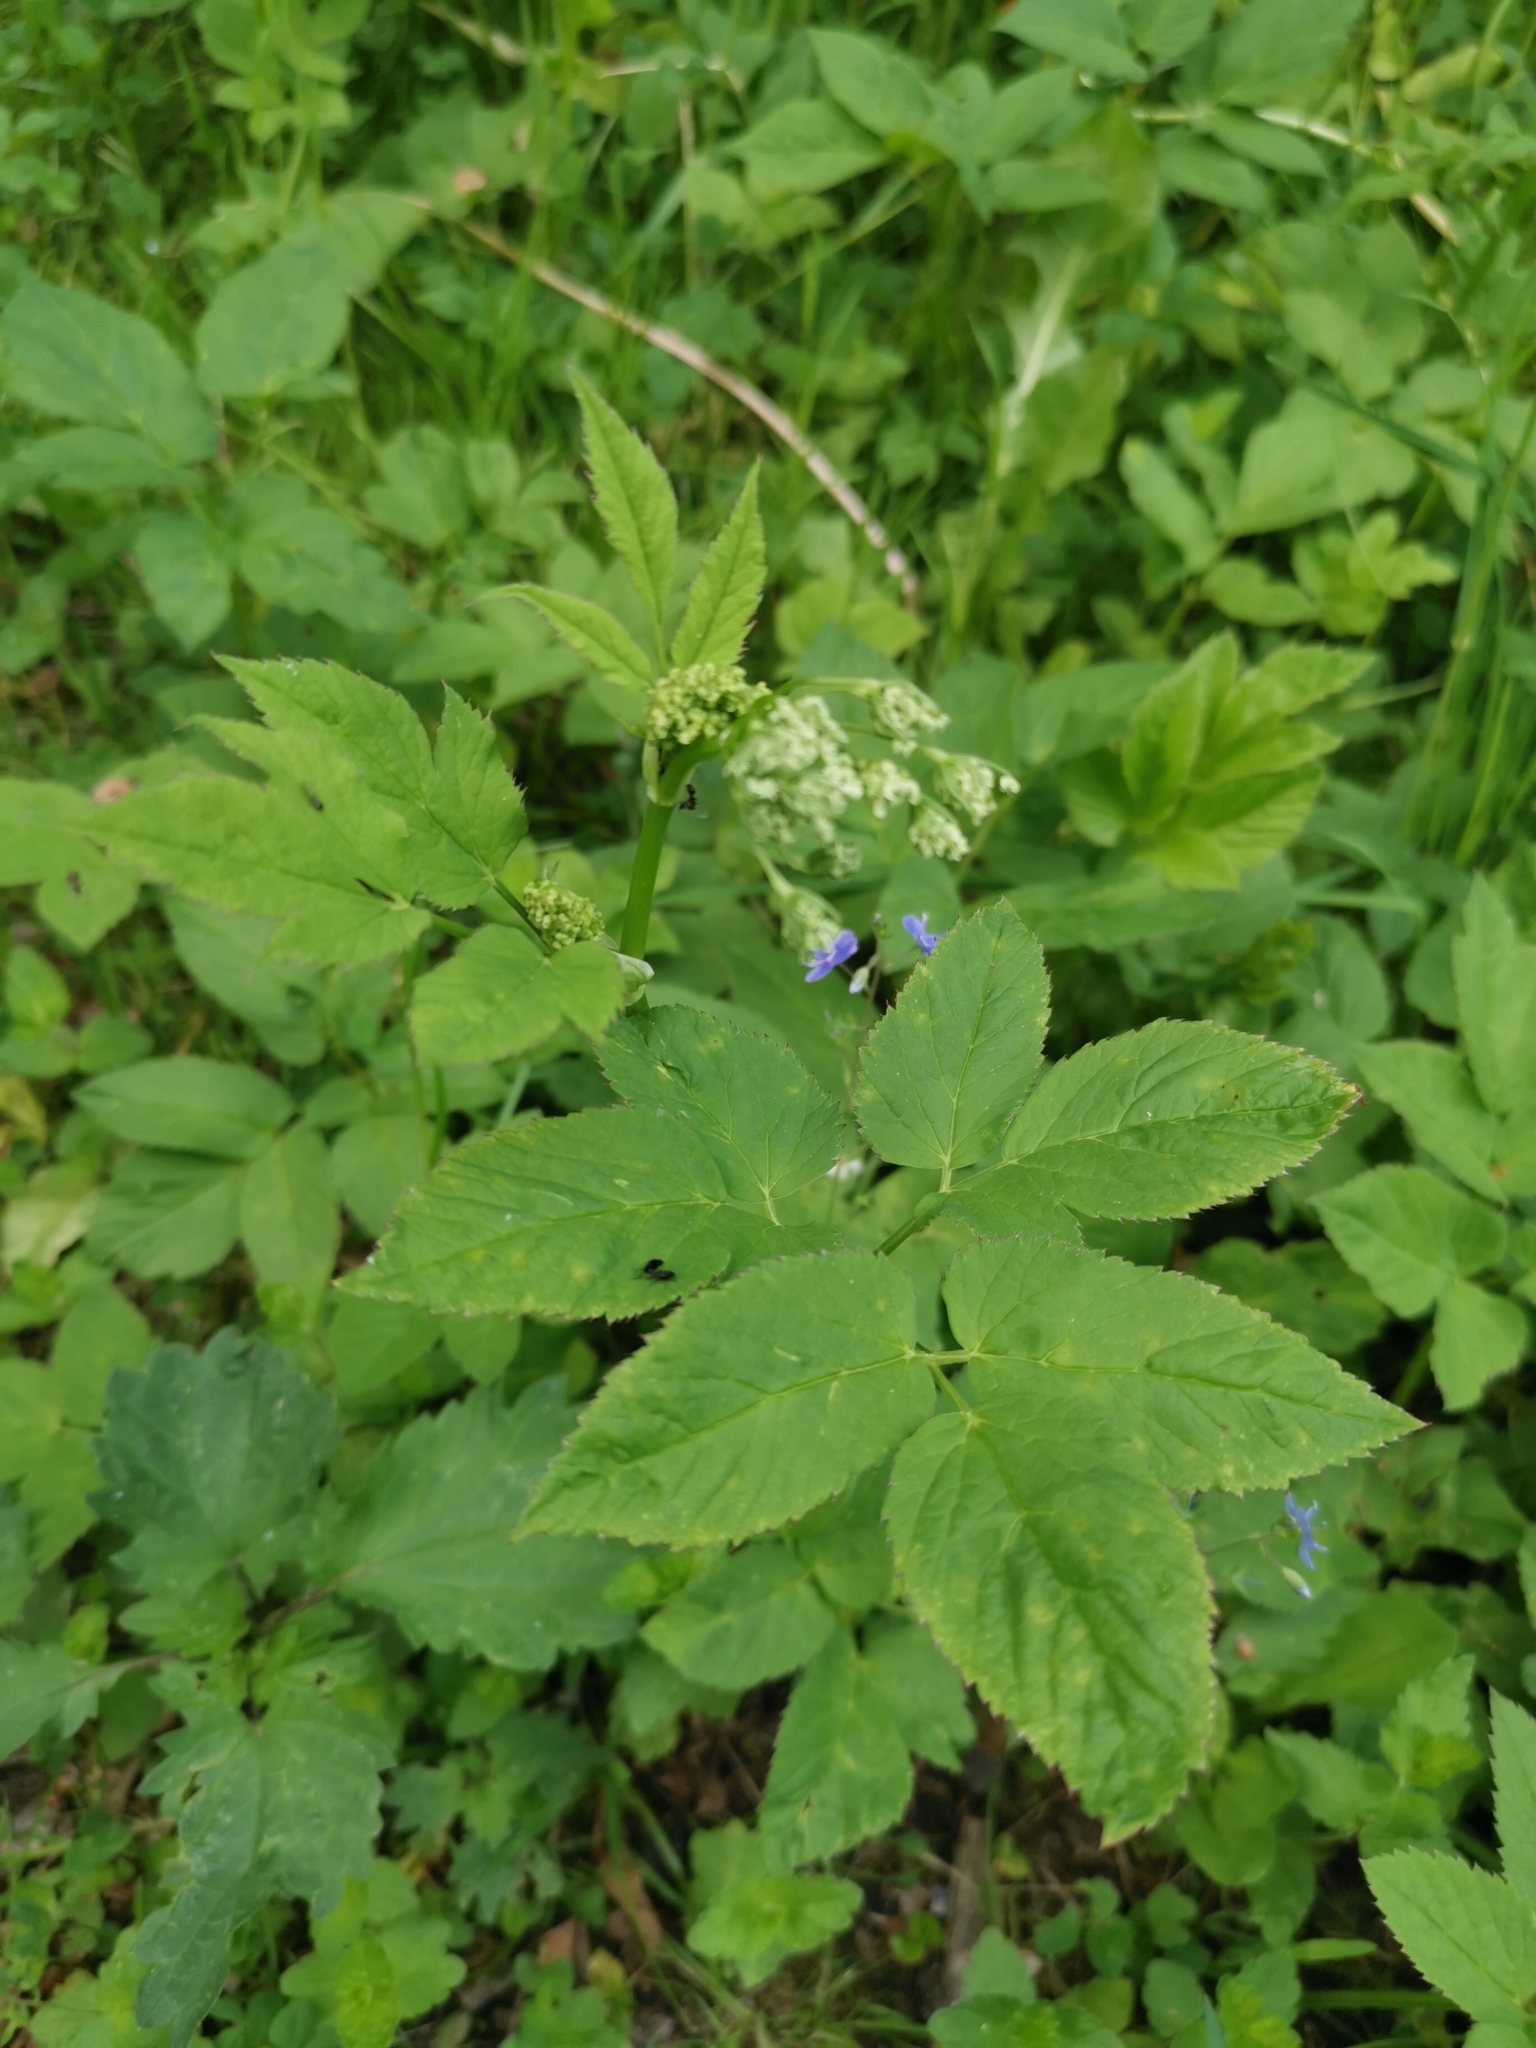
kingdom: Plantae
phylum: Tracheophyta
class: Magnoliopsida
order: Apiales
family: Apiaceae
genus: Aegopodium
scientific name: Aegopodium podagraria
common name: Ground-elder
